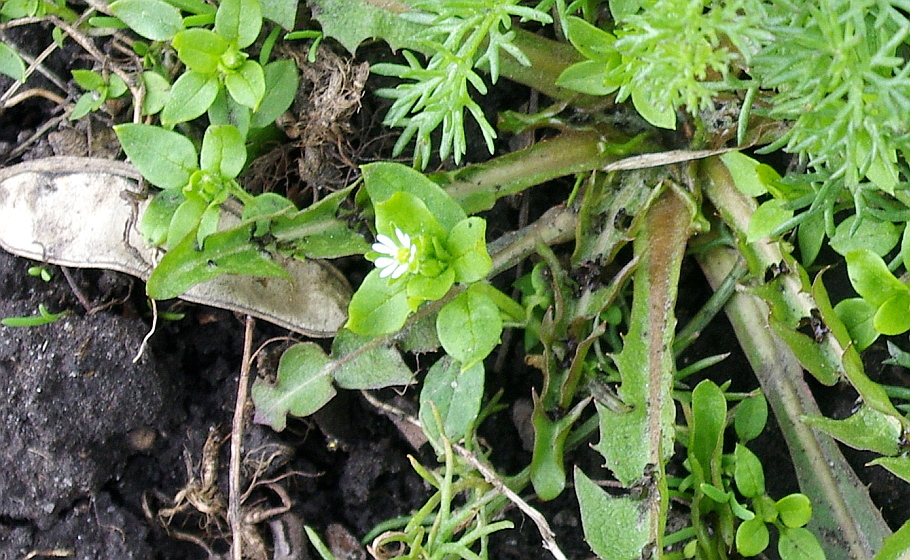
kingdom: Plantae
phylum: Tracheophyta
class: Magnoliopsida
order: Caryophyllales
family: Caryophyllaceae
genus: Stellaria
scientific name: Stellaria media
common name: Common chickweed
